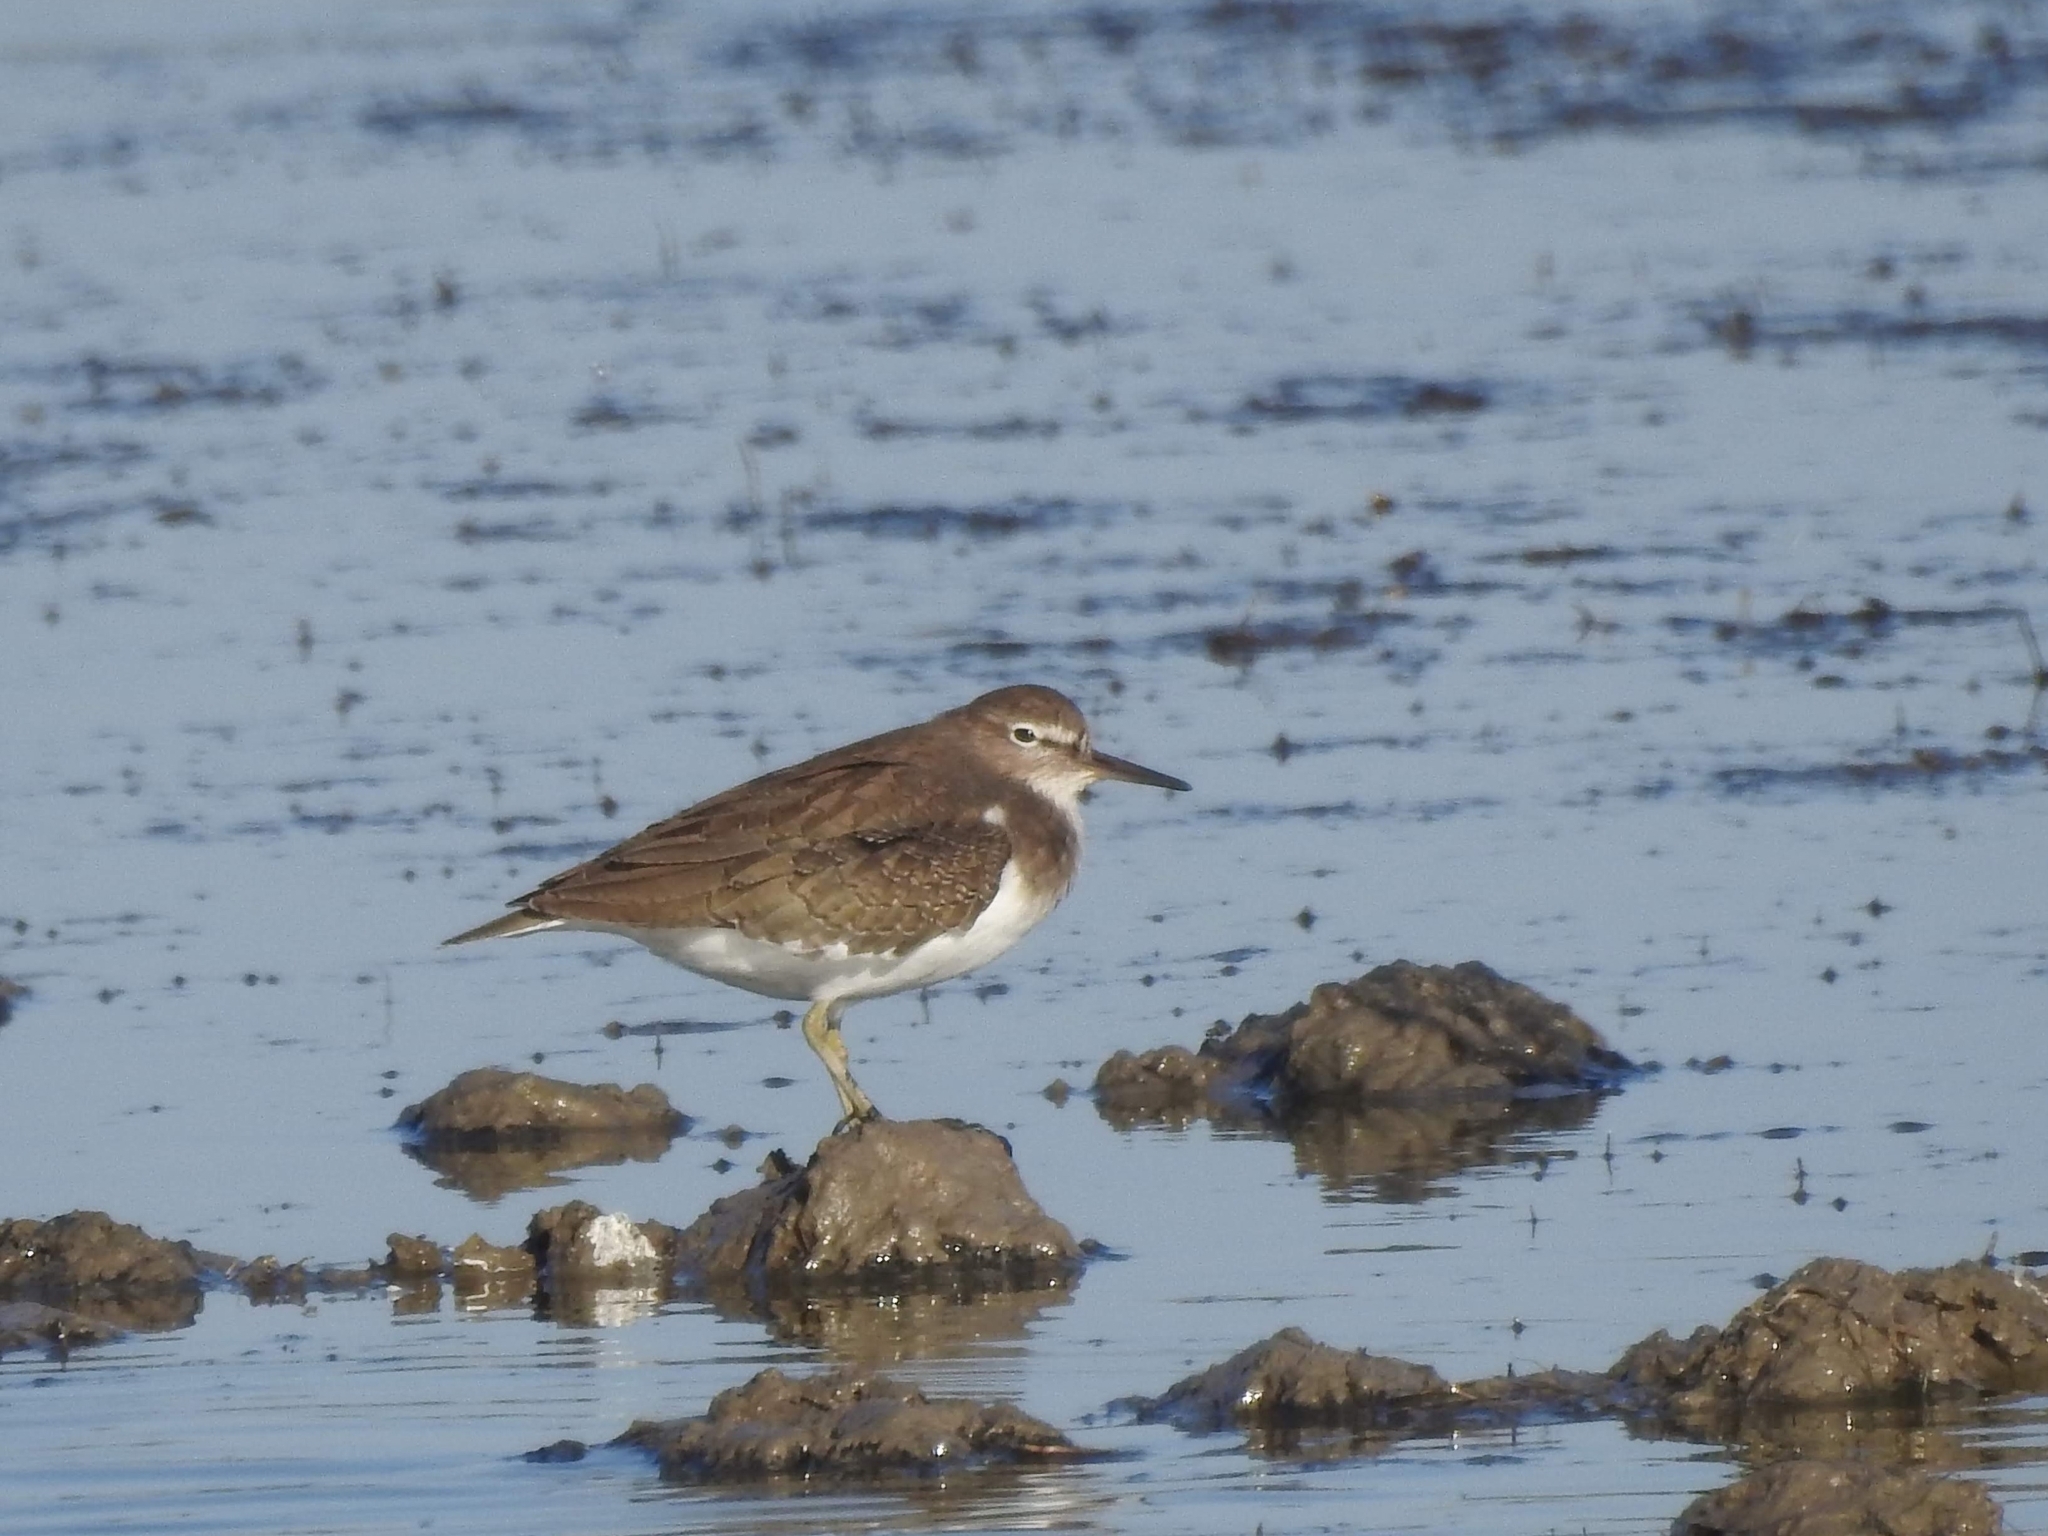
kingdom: Animalia
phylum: Chordata
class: Aves
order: Charadriiformes
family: Scolopacidae
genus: Actitis
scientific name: Actitis hypoleucos
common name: Common sandpiper
